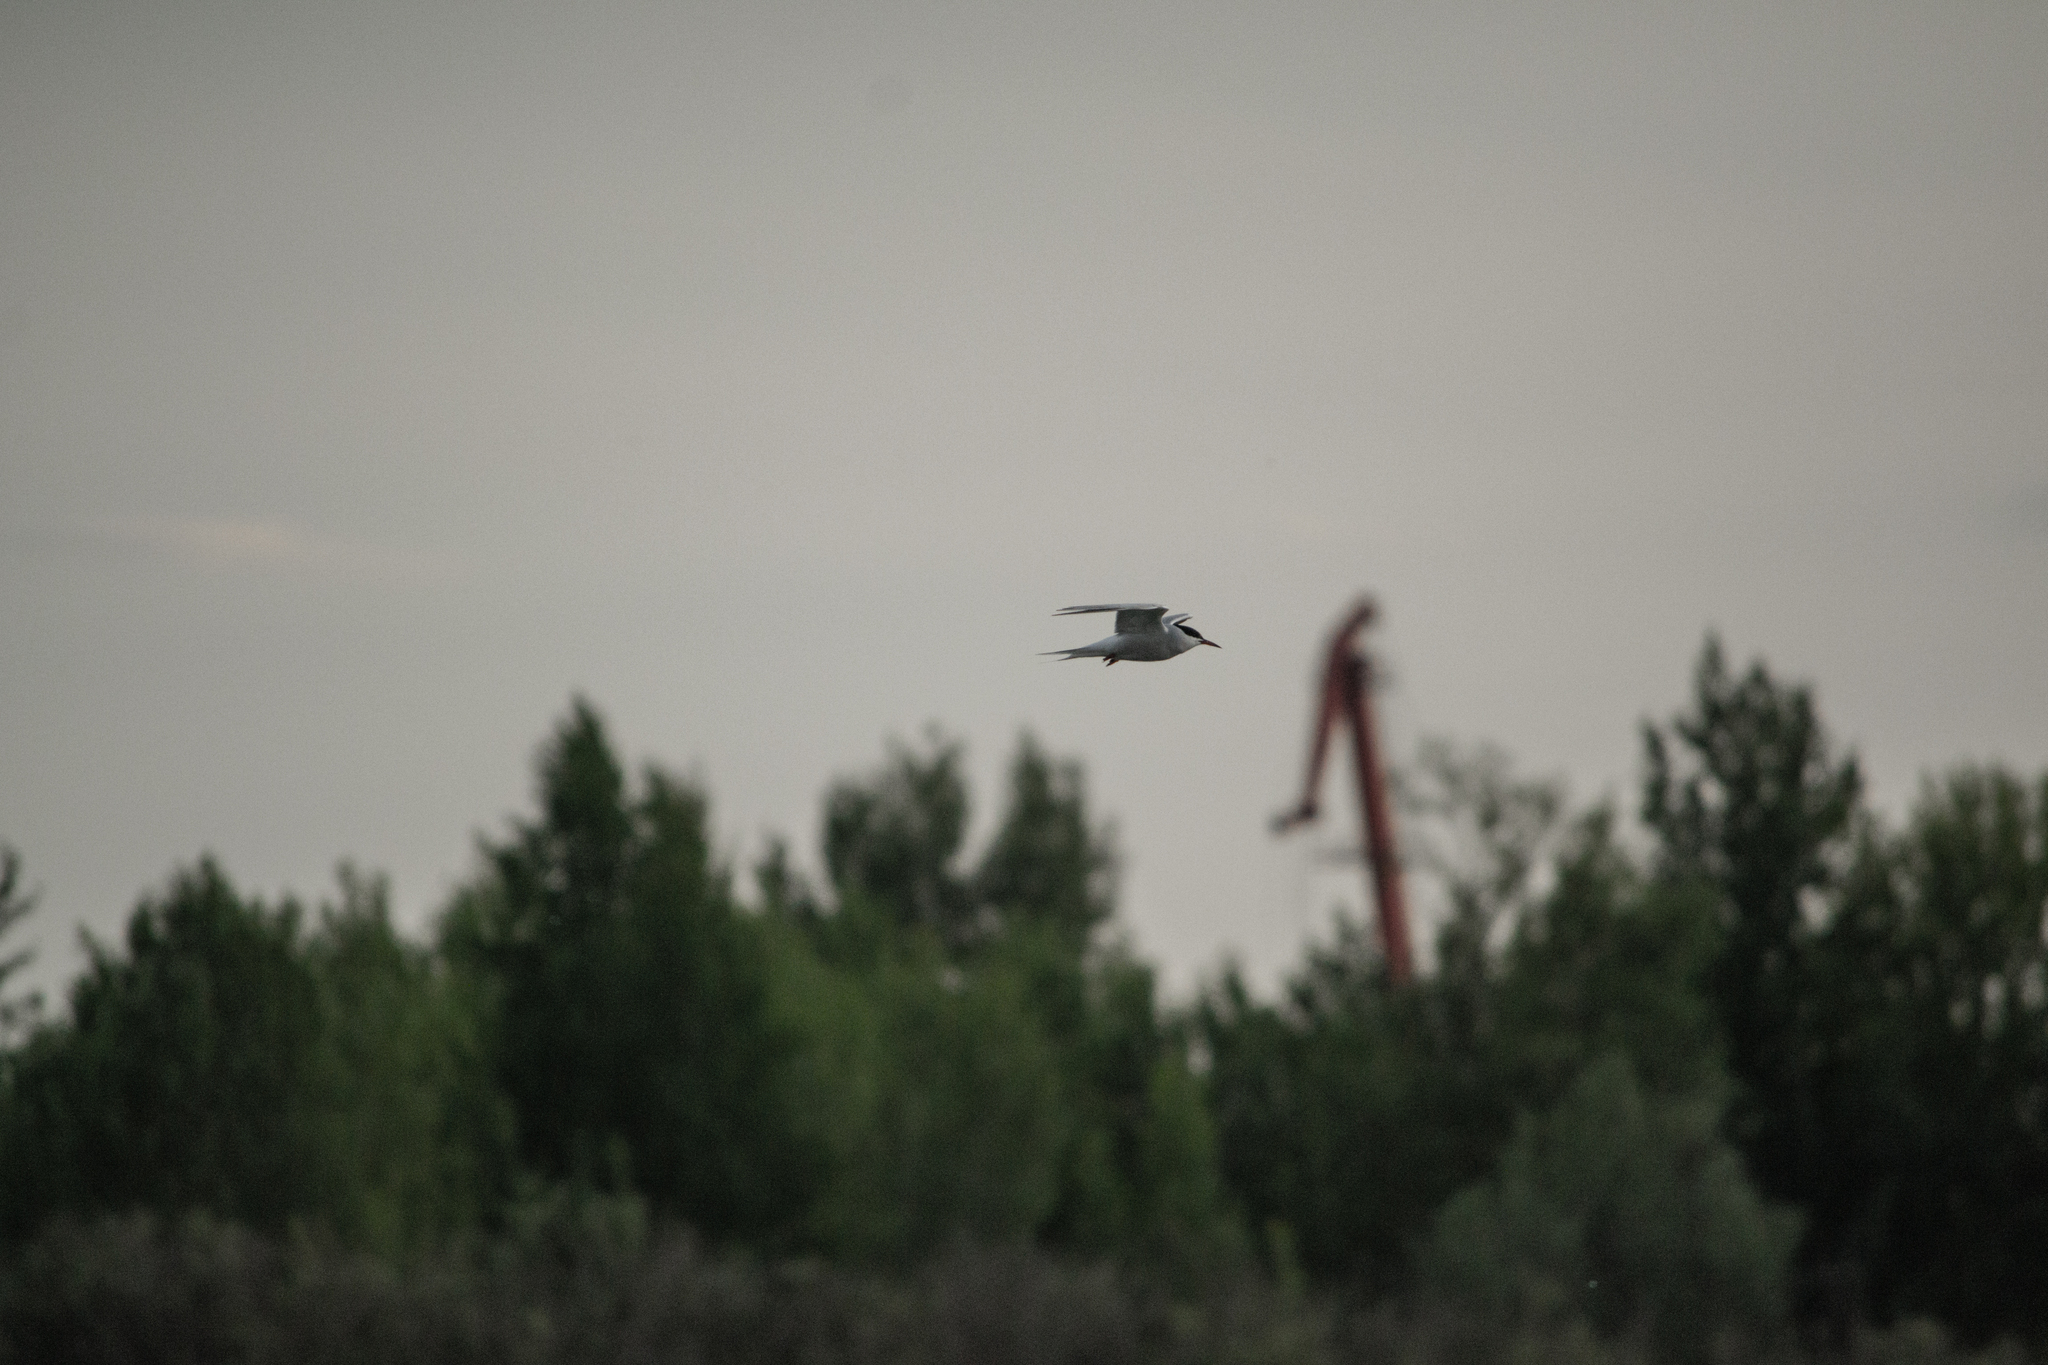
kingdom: Animalia
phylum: Chordata
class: Aves
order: Charadriiformes
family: Laridae
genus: Sterna
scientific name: Sterna hirundo
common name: Common tern
